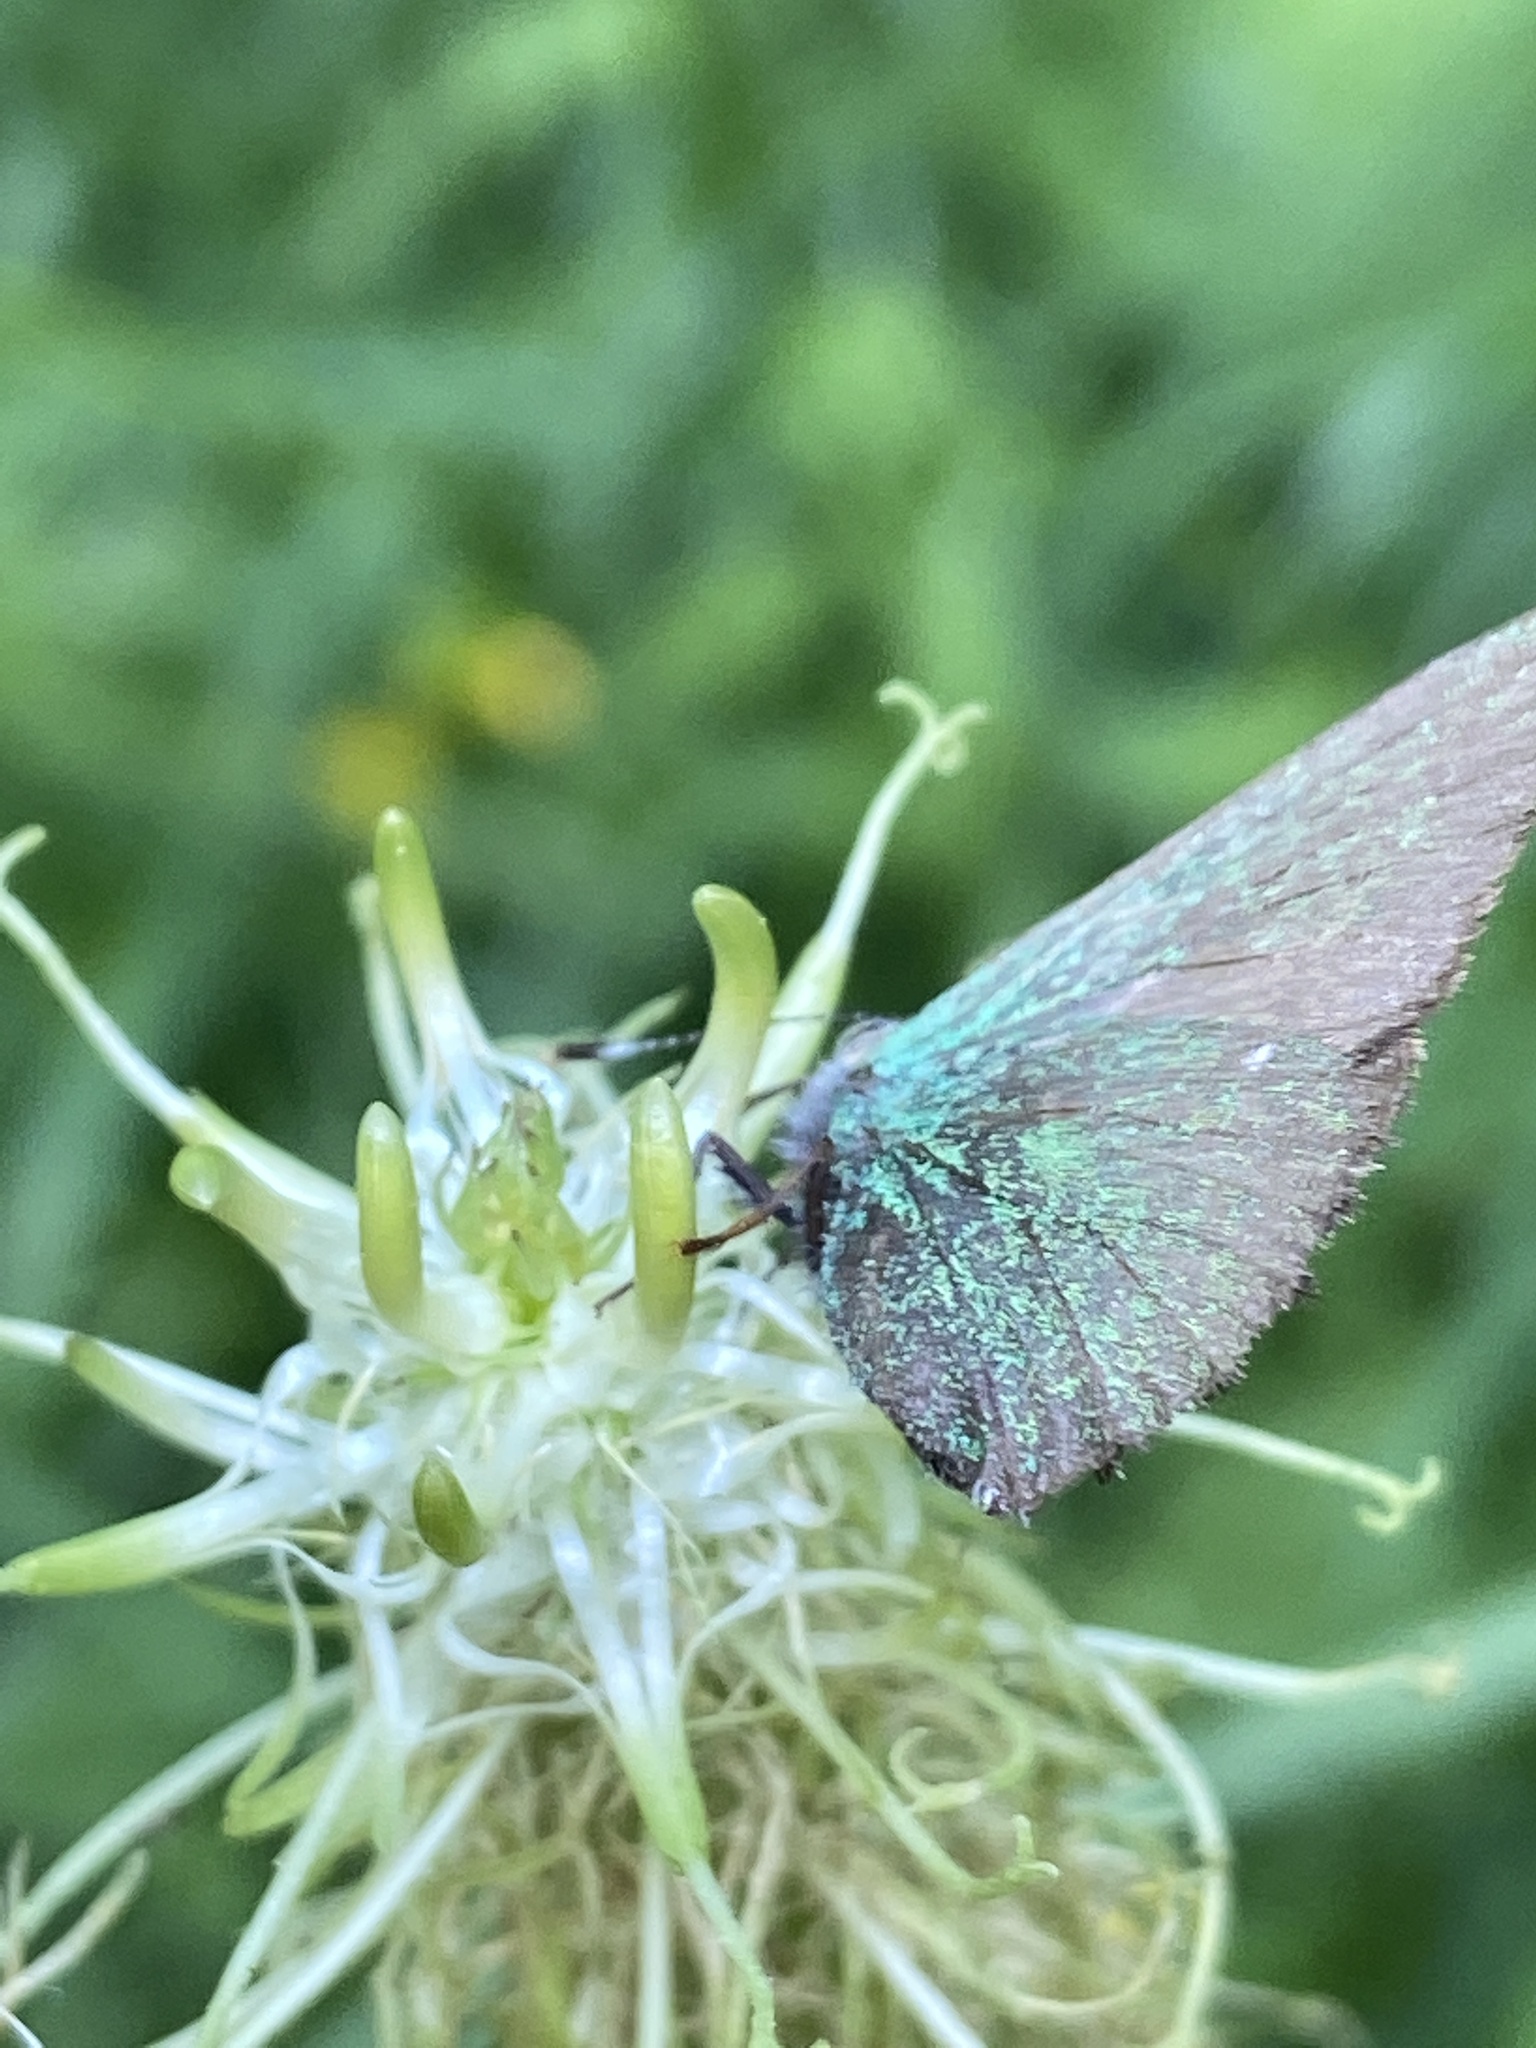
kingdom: Animalia
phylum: Arthropoda
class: Insecta
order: Lepidoptera
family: Lycaenidae
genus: Callophrys
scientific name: Callophrys rubi
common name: Green hairstreak
